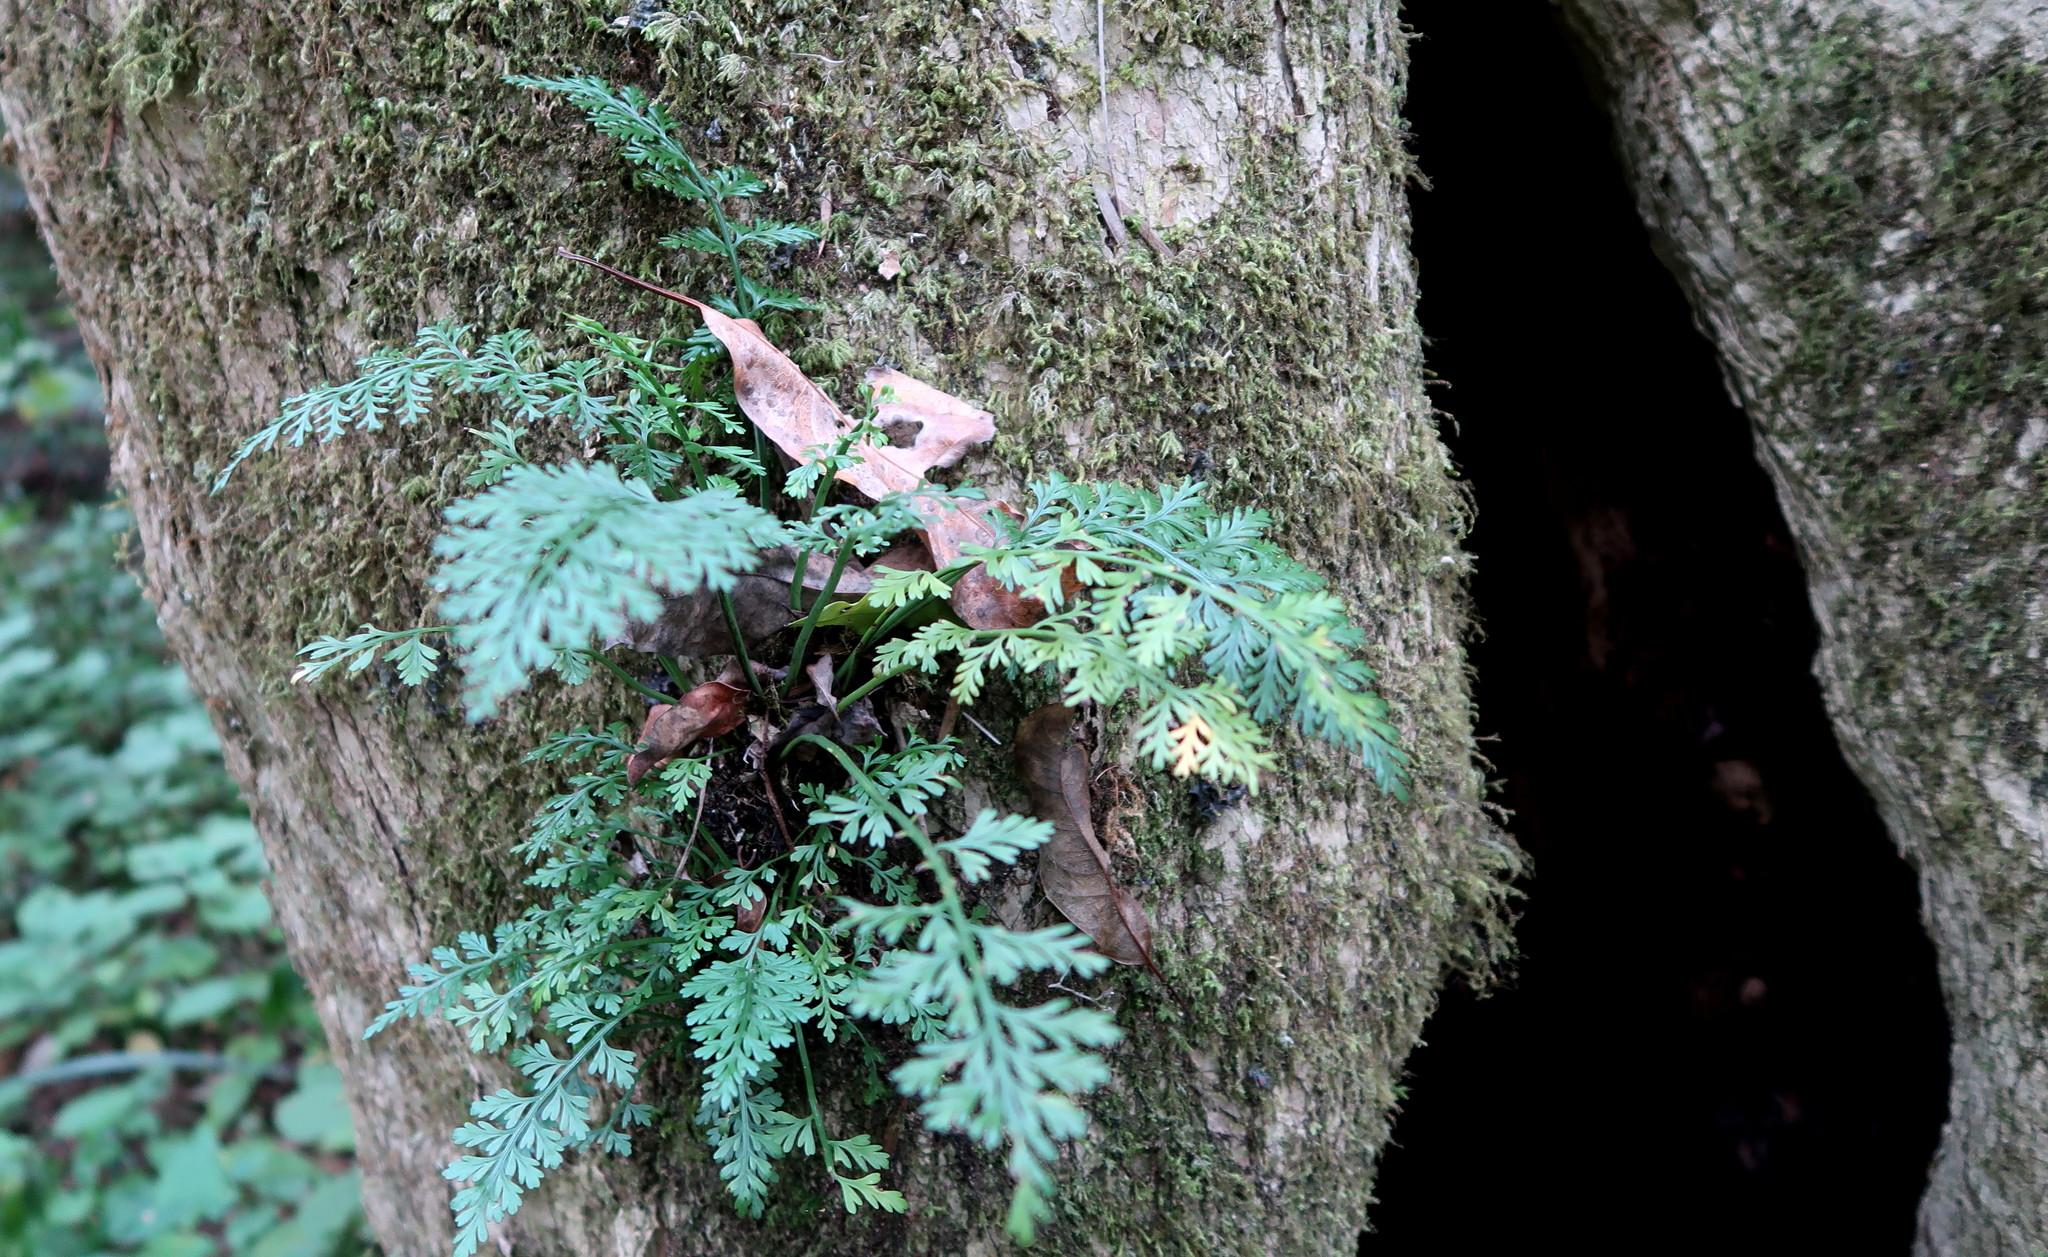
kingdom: Plantae
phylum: Tracheophyta
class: Polypodiopsida
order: Polypodiales
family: Aspleniaceae
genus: Asplenium
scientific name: Asplenium rutifolium
